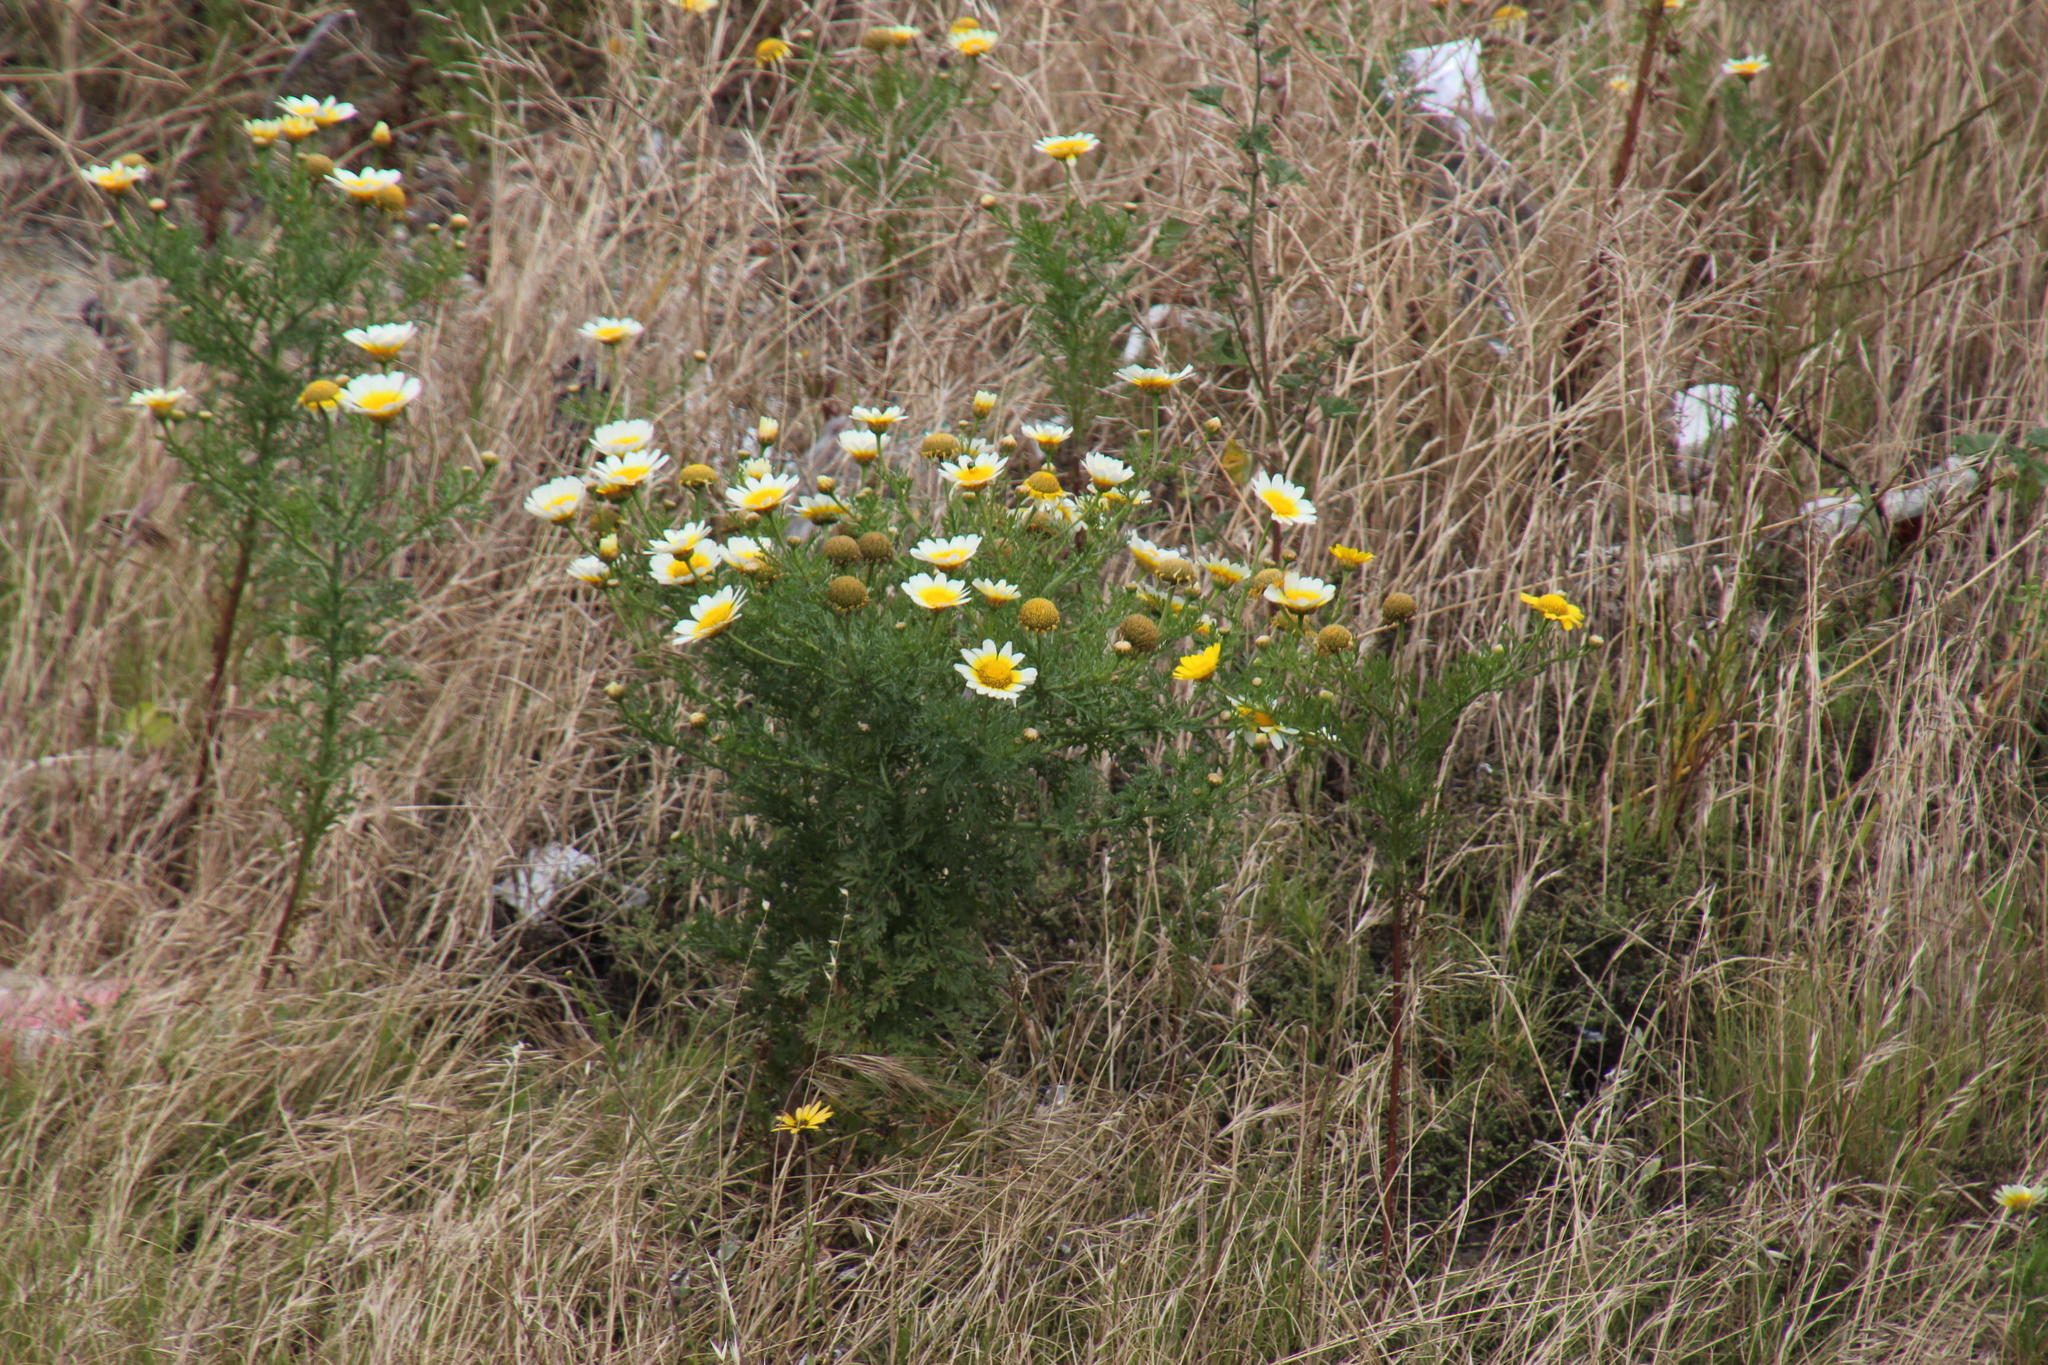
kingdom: Plantae
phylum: Tracheophyta
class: Magnoliopsida
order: Asterales
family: Asteraceae
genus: Glebionis
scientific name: Glebionis coronaria
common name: Crowndaisy
